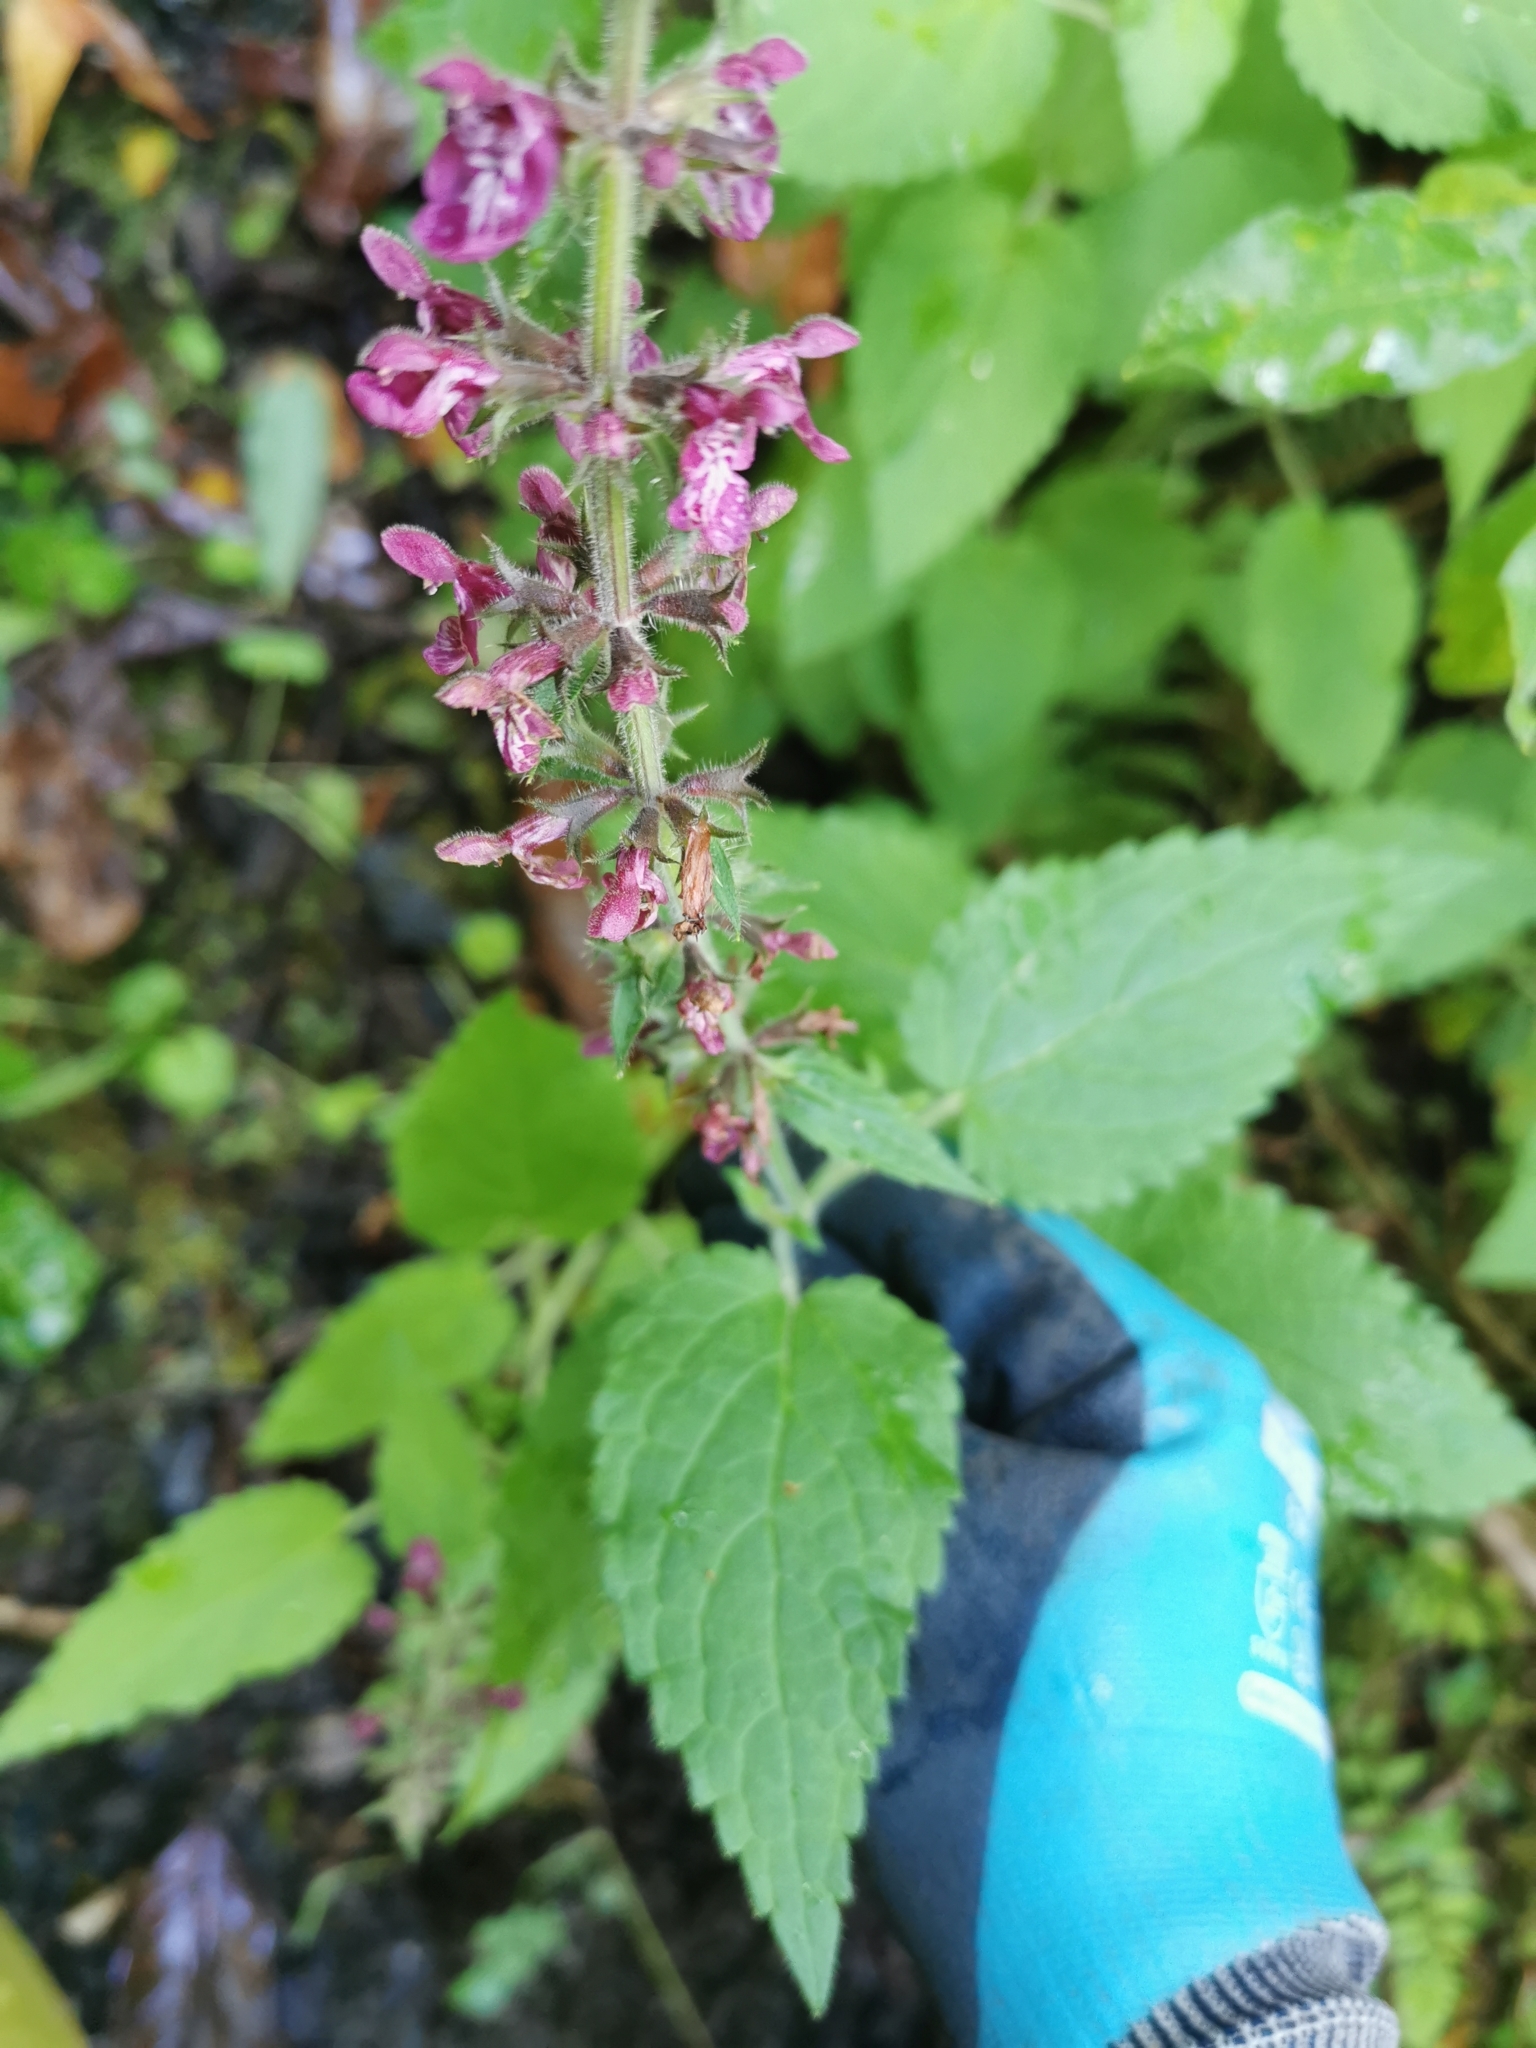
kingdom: Plantae
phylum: Tracheophyta
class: Magnoliopsida
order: Lamiales
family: Lamiaceae
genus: Stachys
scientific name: Stachys sylvatica
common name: Hedge woundwort
